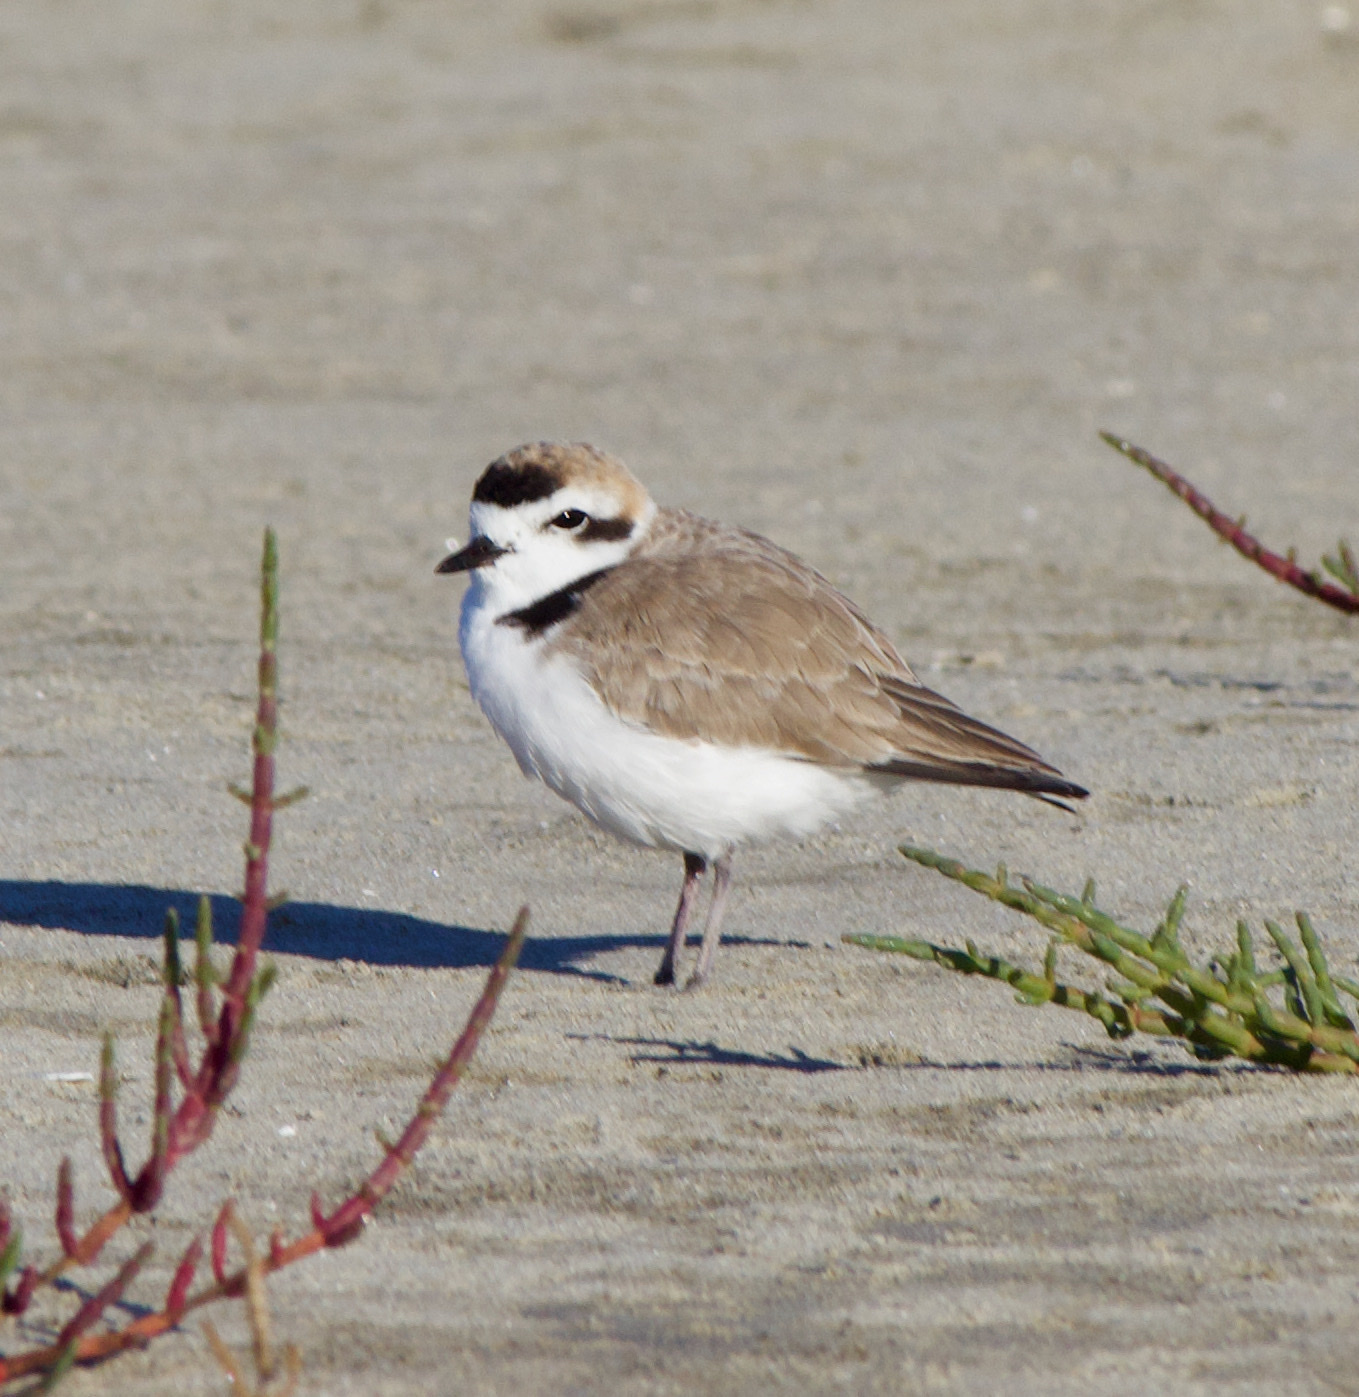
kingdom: Animalia
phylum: Chordata
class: Aves
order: Charadriiformes
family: Charadriidae
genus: Anarhynchus
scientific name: Anarhynchus
